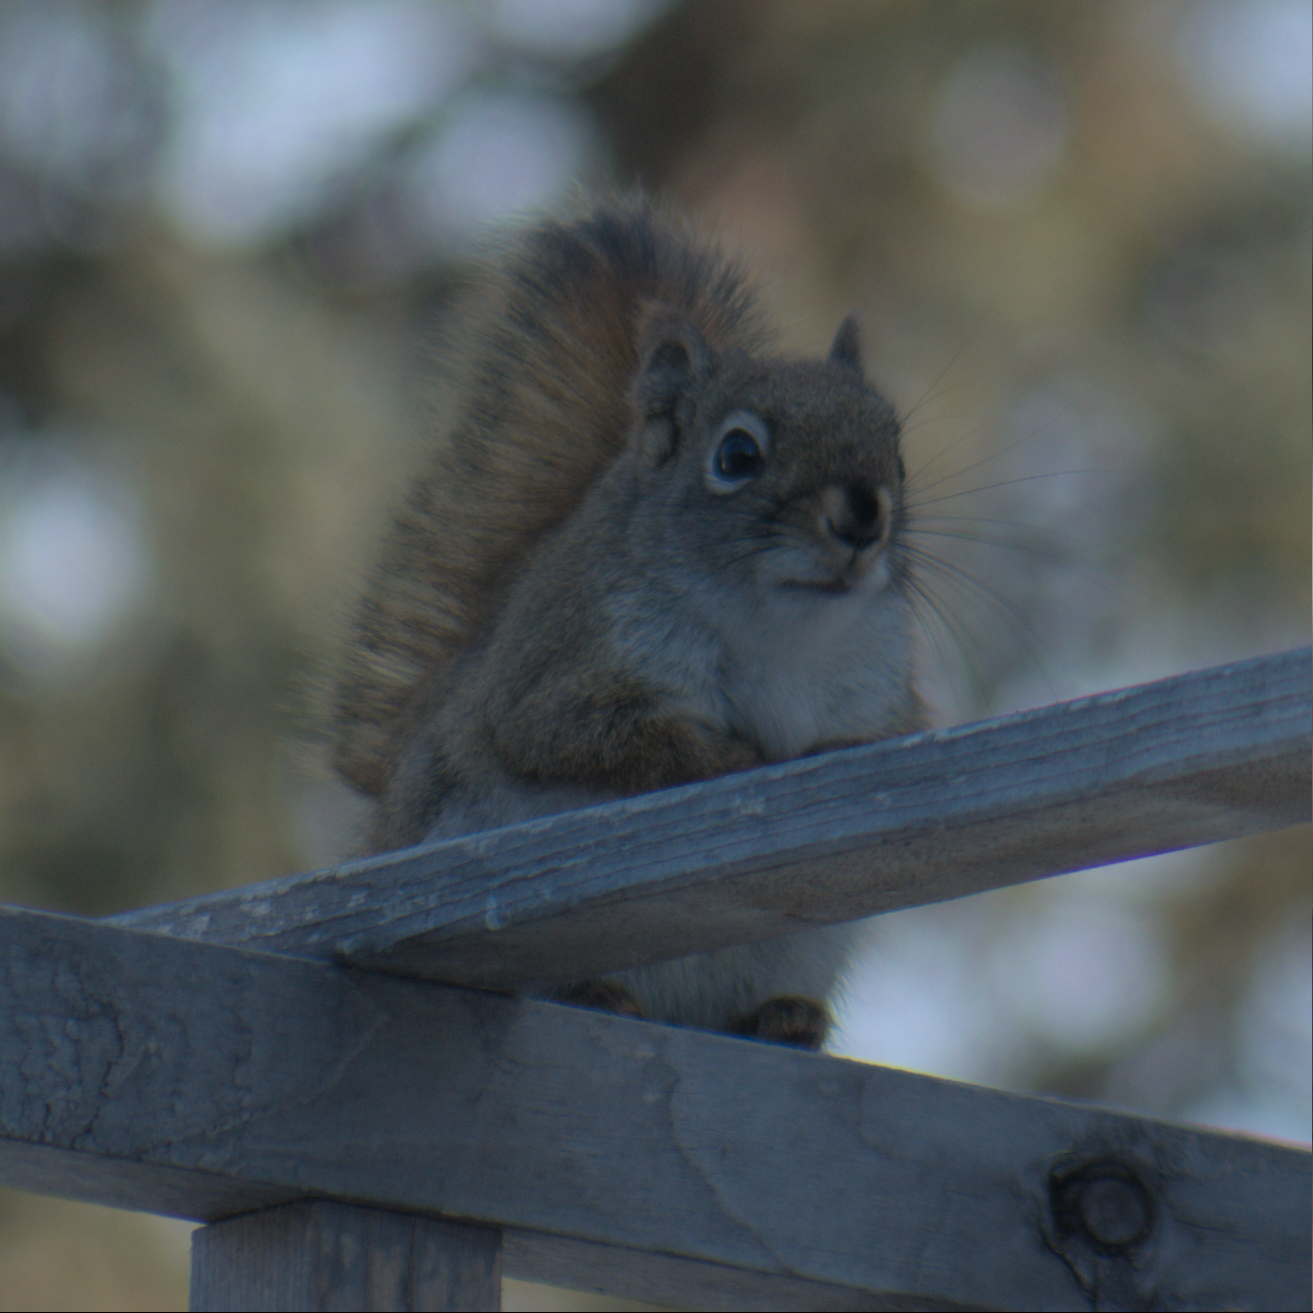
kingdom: Animalia
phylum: Chordata
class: Mammalia
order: Rodentia
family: Sciuridae
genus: Tamiasciurus
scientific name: Tamiasciurus hudsonicus
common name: Red squirrel
